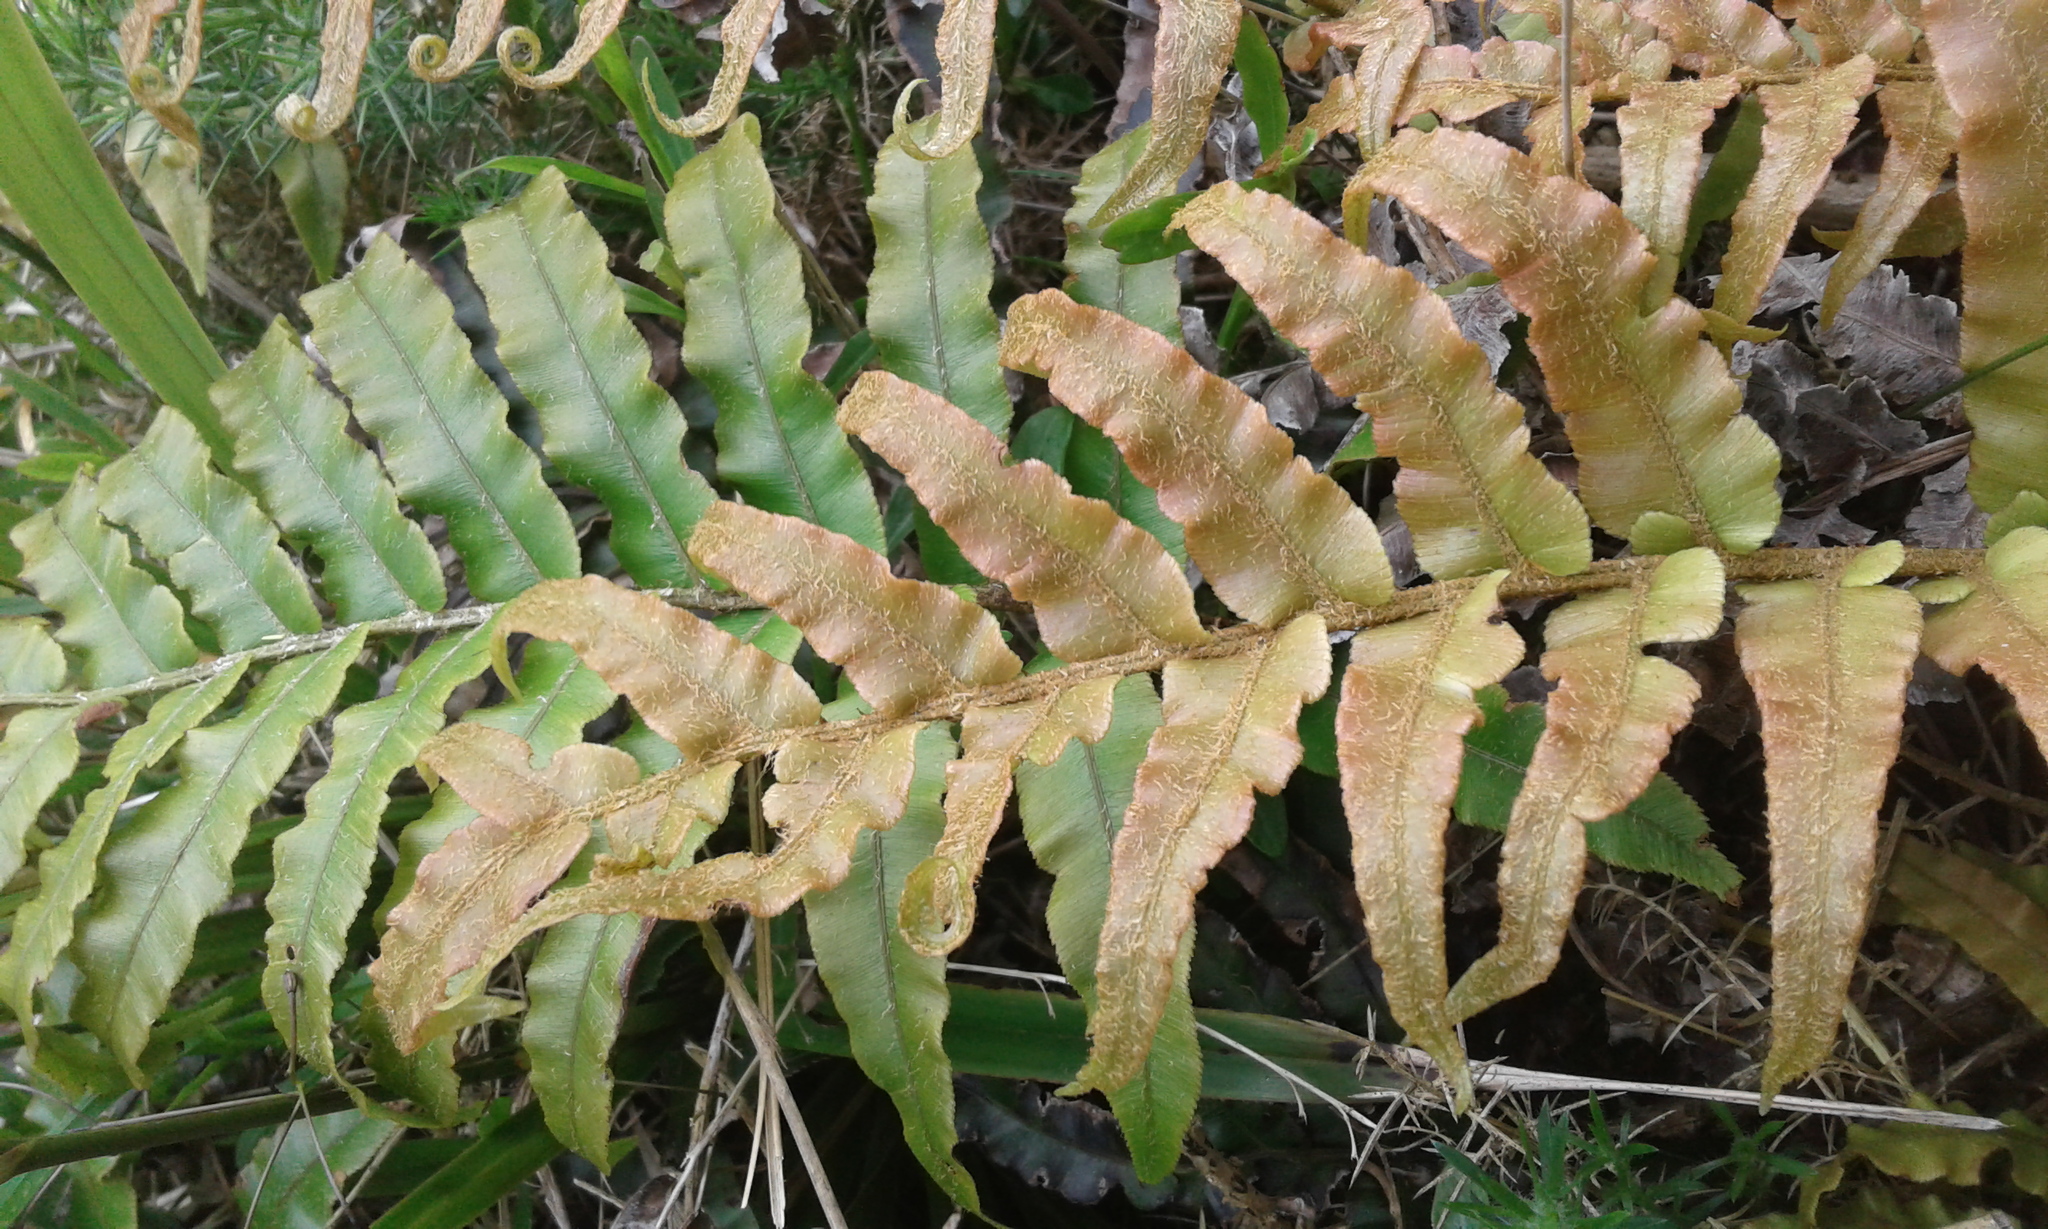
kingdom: Plantae
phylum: Tracheophyta
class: Polypodiopsida
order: Polypodiales
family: Blechnaceae
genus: Blechnum
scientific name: Blechnum
